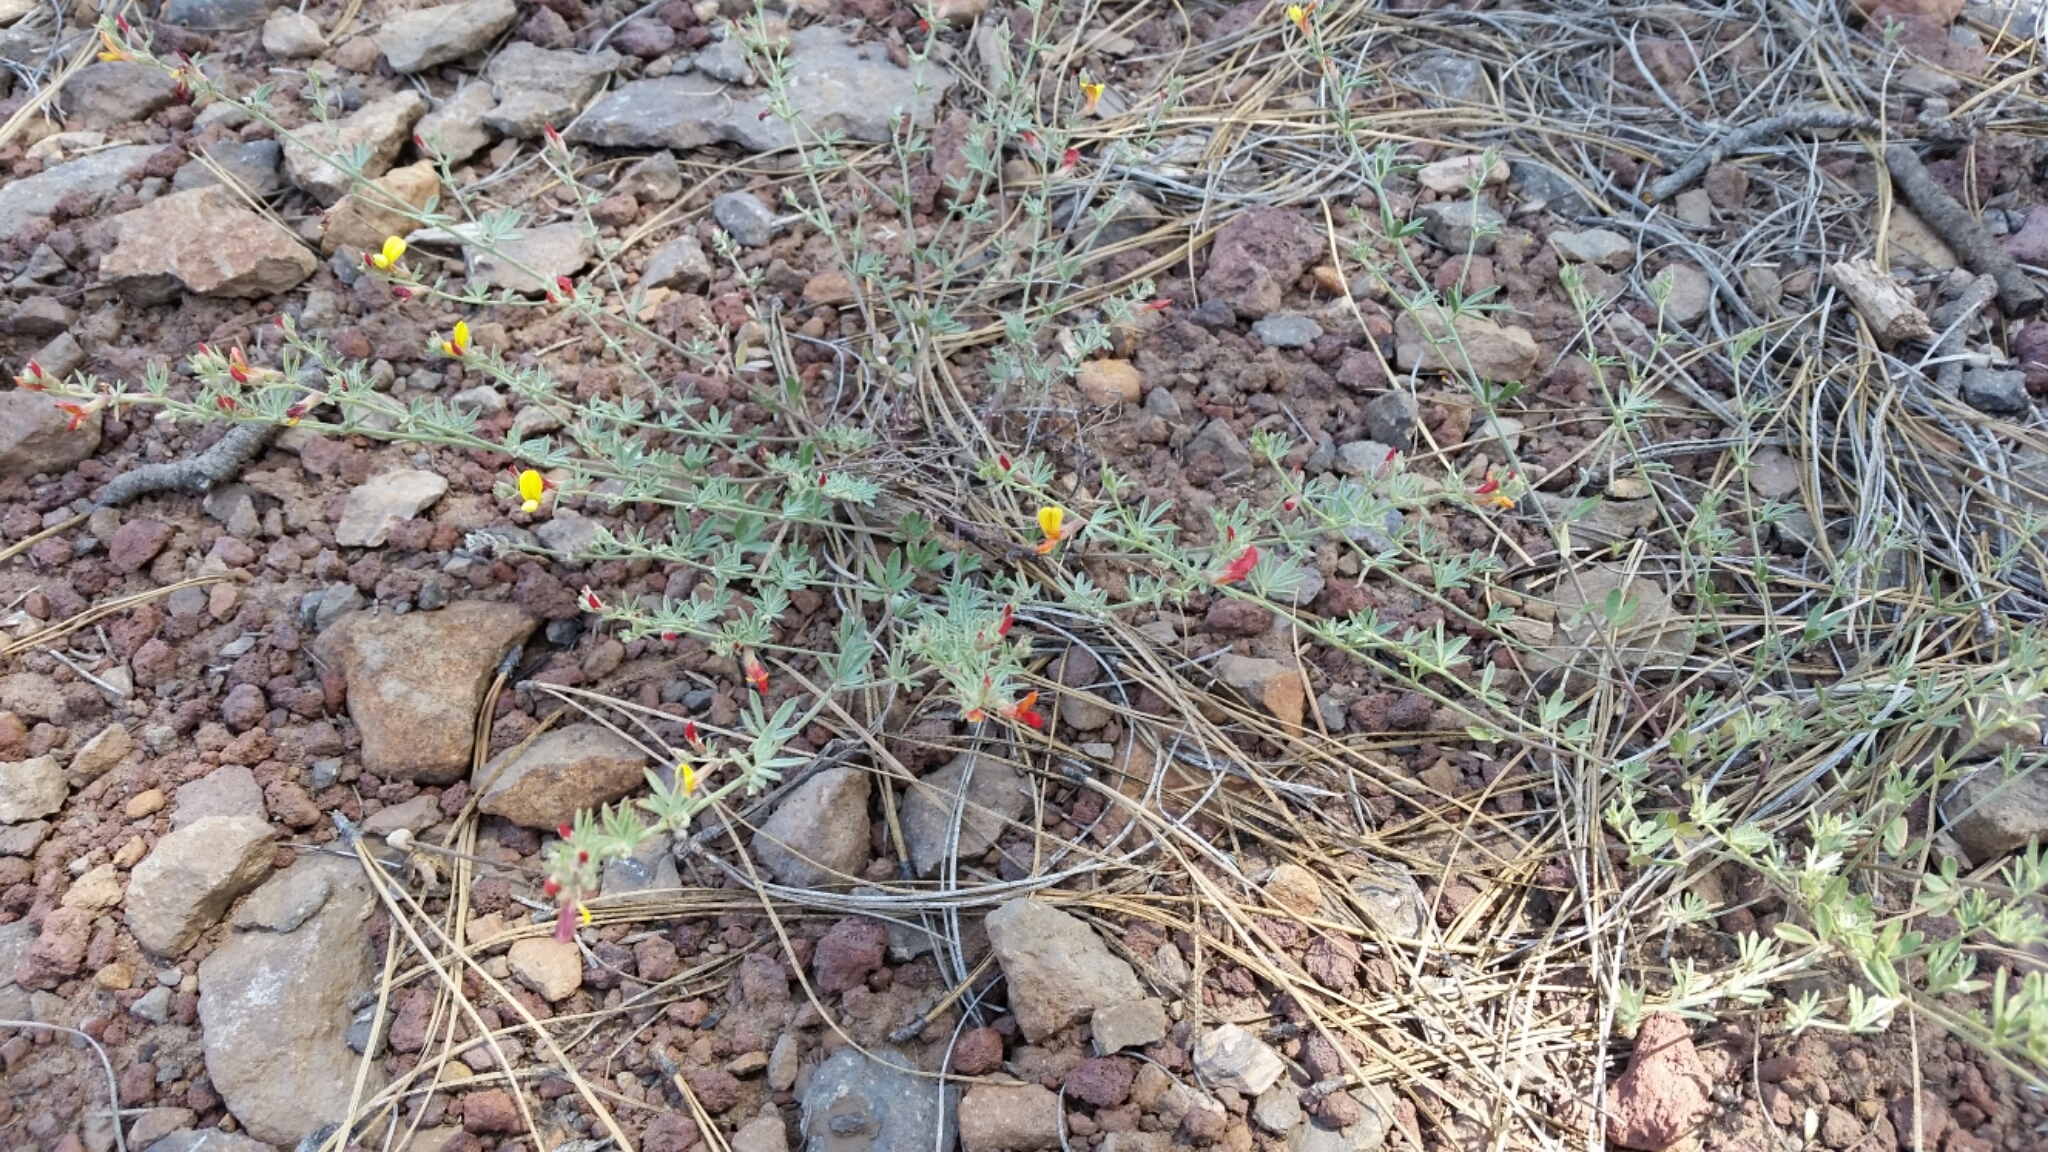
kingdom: Plantae
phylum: Tracheophyta
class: Magnoliopsida
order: Fabales
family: Fabaceae
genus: Acmispon
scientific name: Acmispon wrightii
